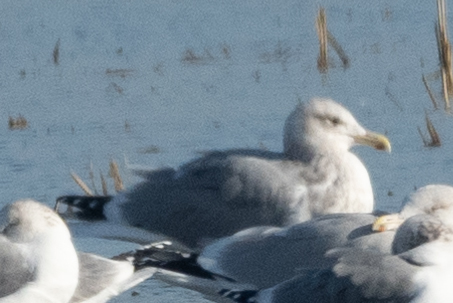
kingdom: Animalia
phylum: Chordata
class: Aves
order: Charadriiformes
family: Laridae
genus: Larus
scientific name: Larus argentatus
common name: Herring gull
